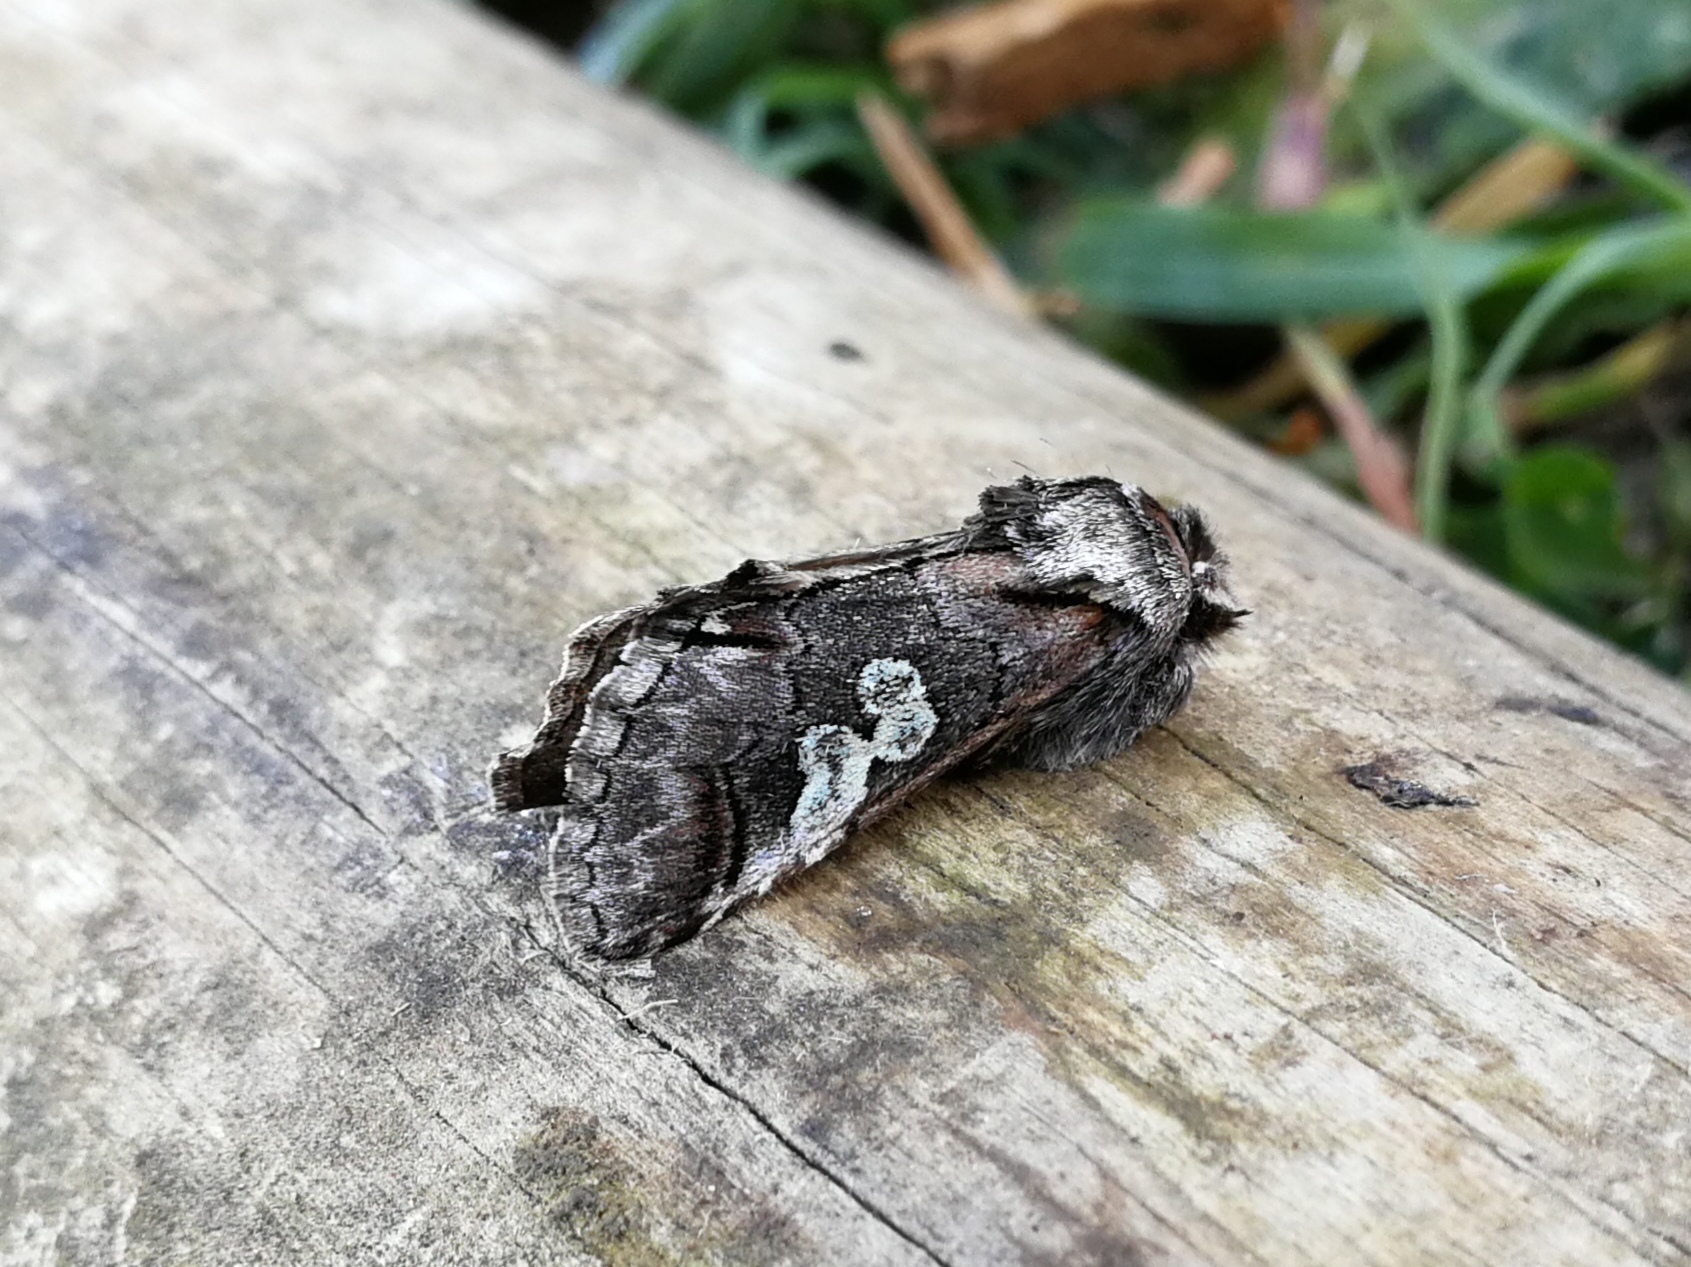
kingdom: Animalia
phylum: Arthropoda
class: Insecta
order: Lepidoptera
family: Noctuidae
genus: Diloba
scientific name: Diloba caeruleocephala
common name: Figure of eight
